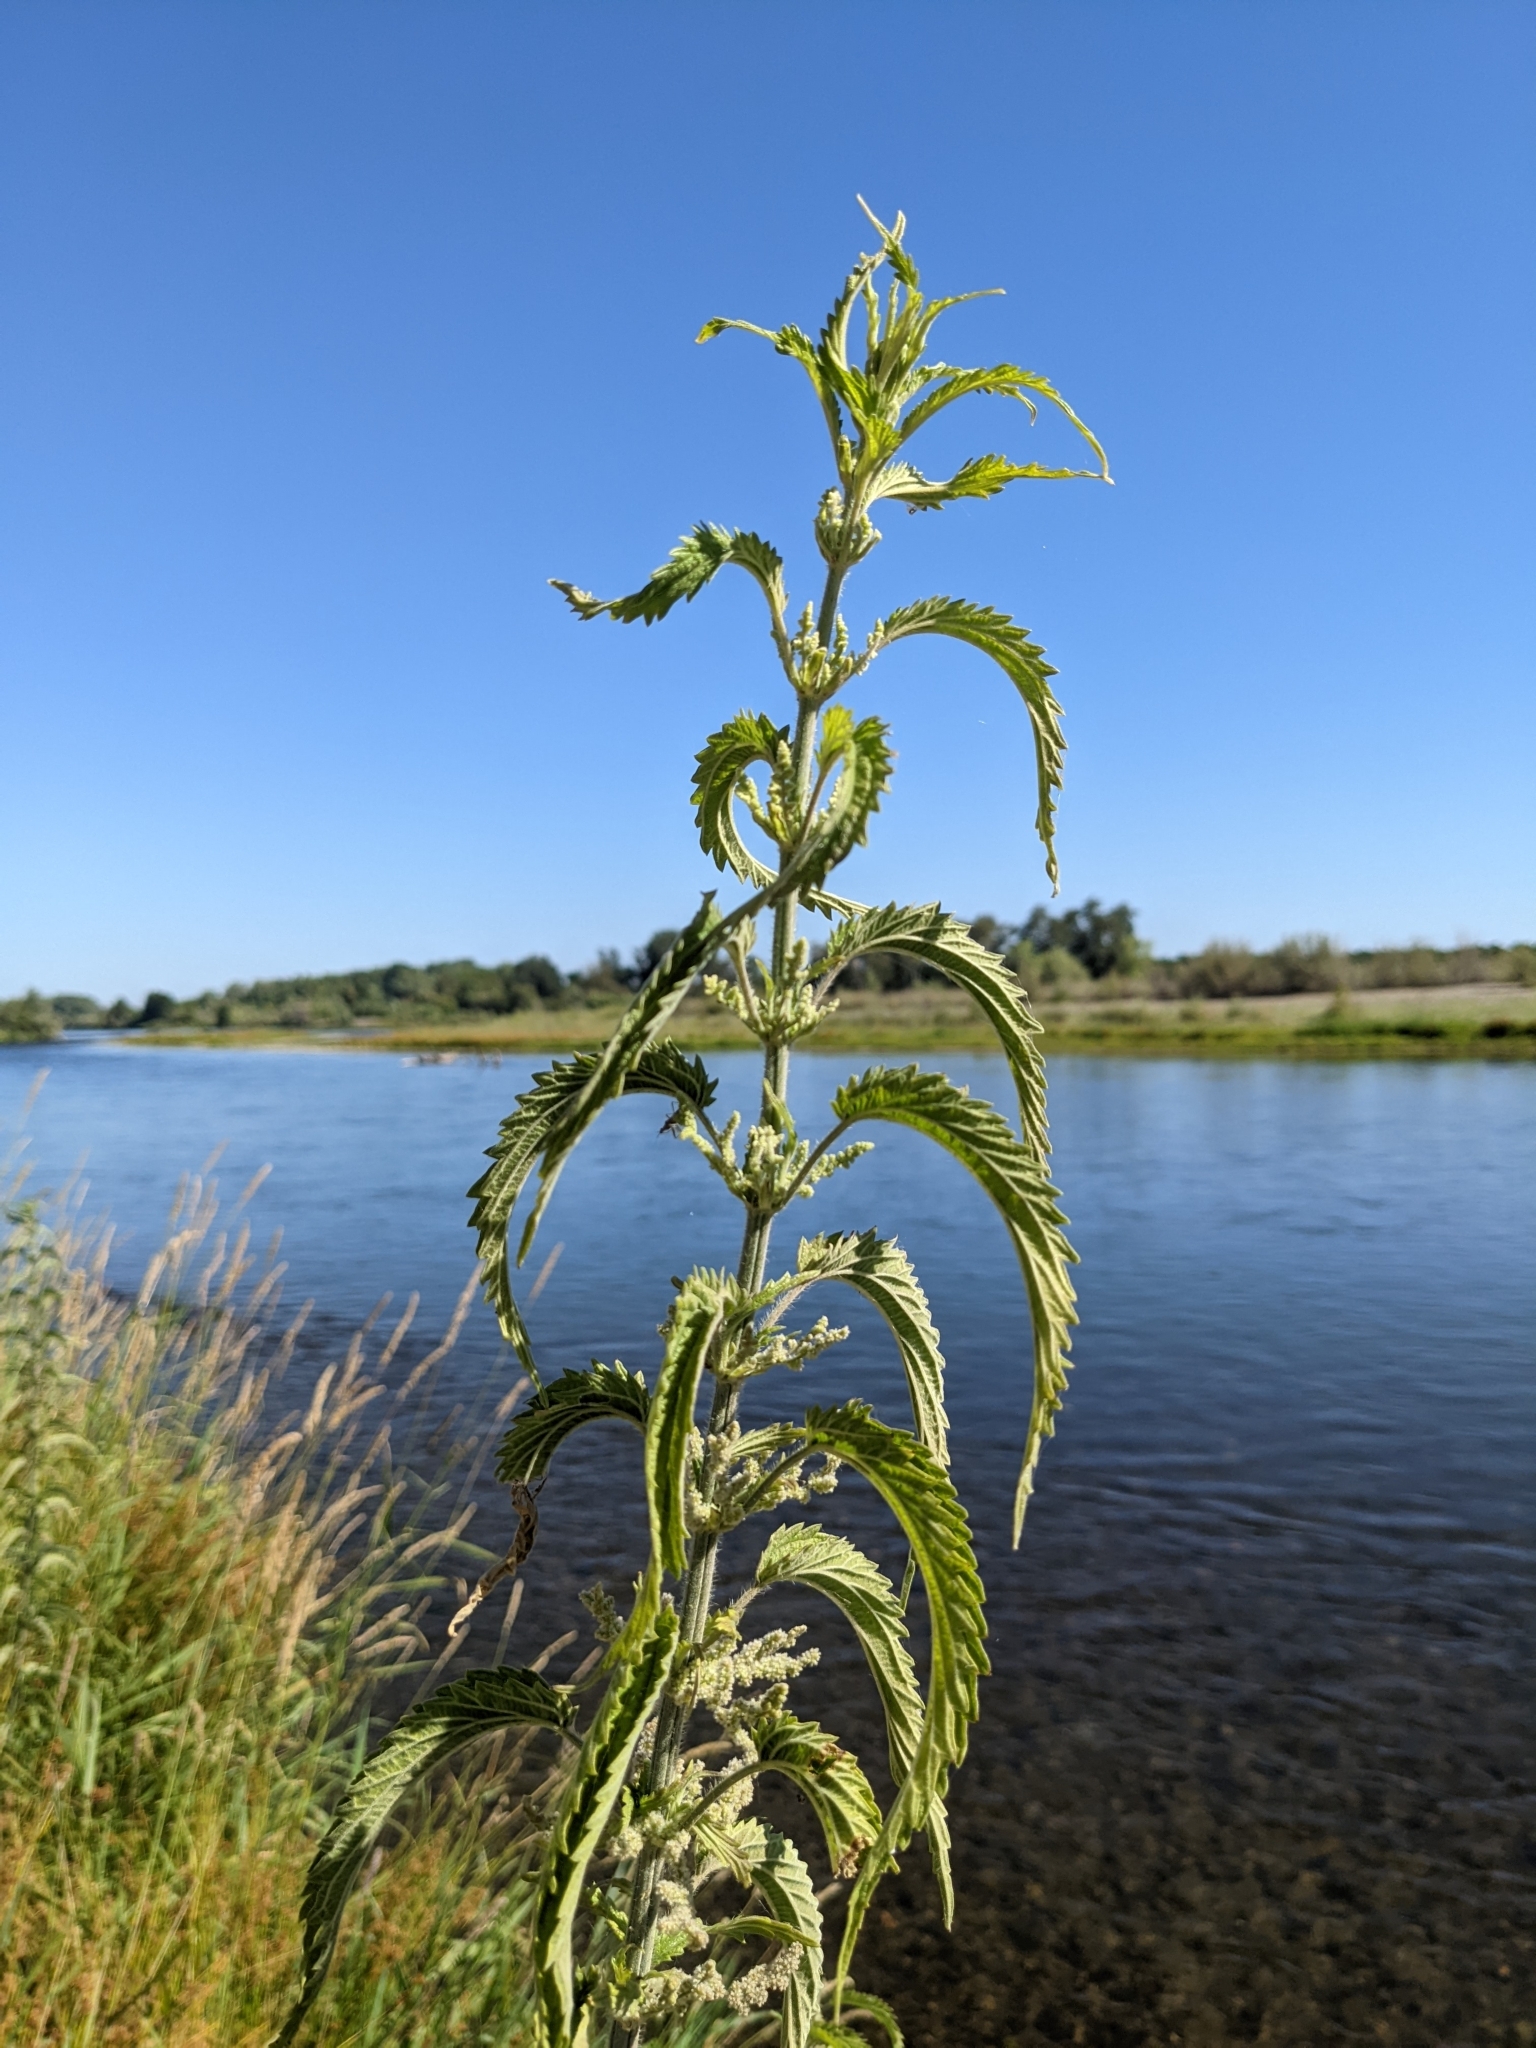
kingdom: Plantae
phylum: Tracheophyta
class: Magnoliopsida
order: Rosales
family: Urticaceae
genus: Urtica
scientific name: Urtica gracilis
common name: Slender stinging nettle
